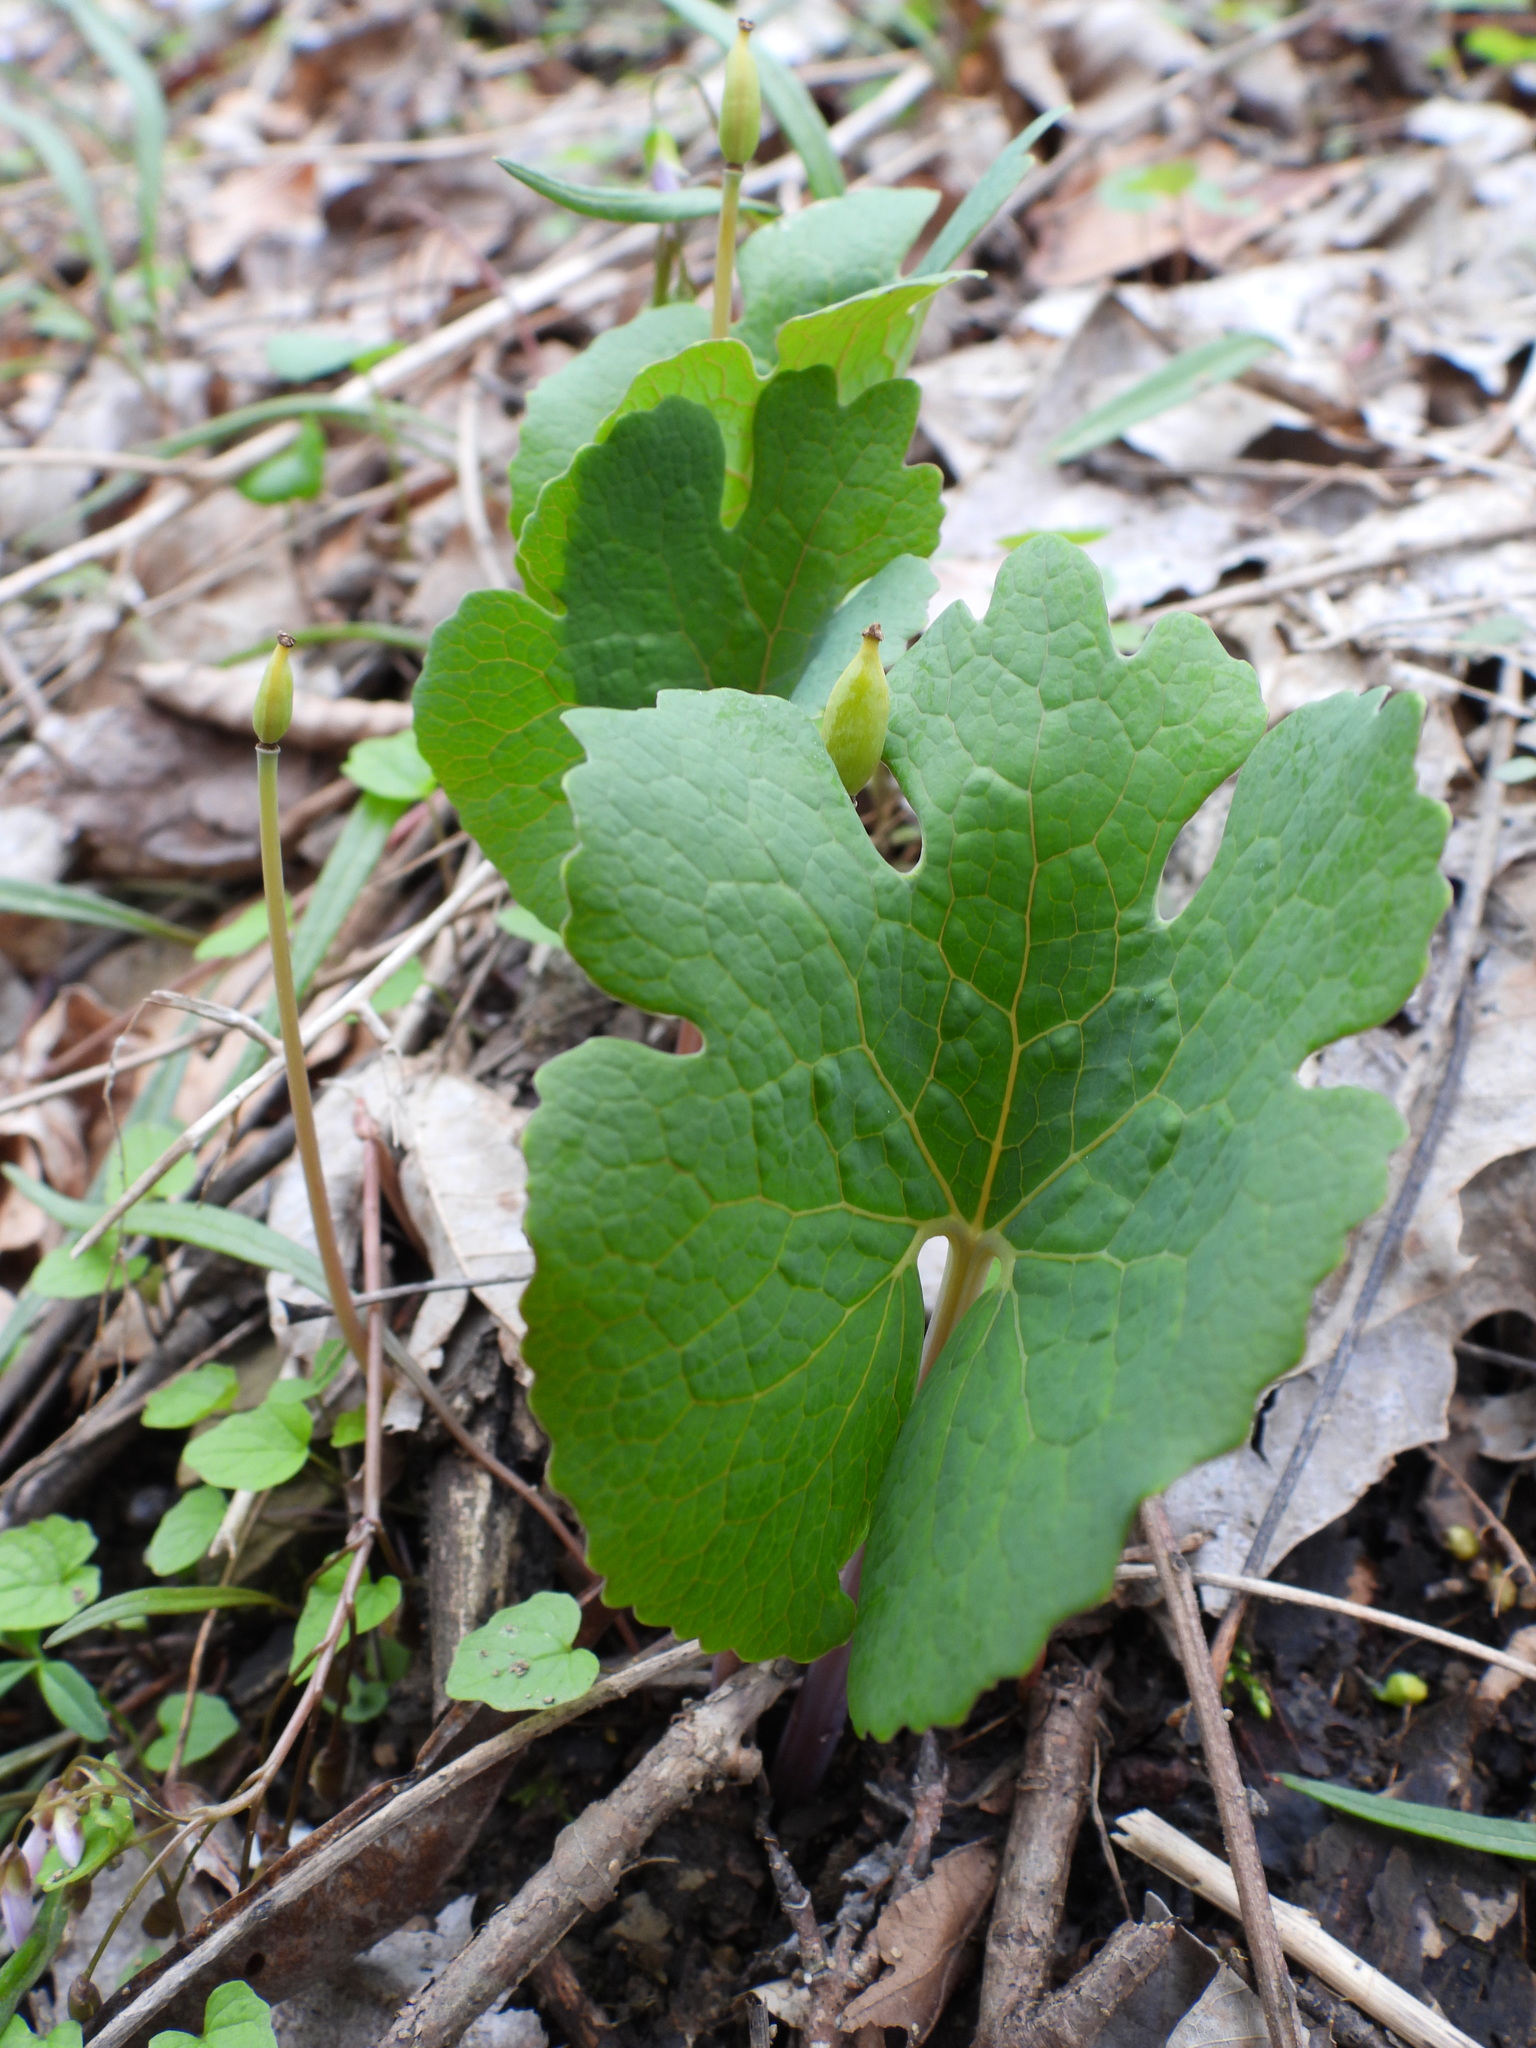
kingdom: Plantae
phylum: Tracheophyta
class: Magnoliopsida
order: Ranunculales
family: Papaveraceae
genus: Sanguinaria
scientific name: Sanguinaria canadensis
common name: Bloodroot
